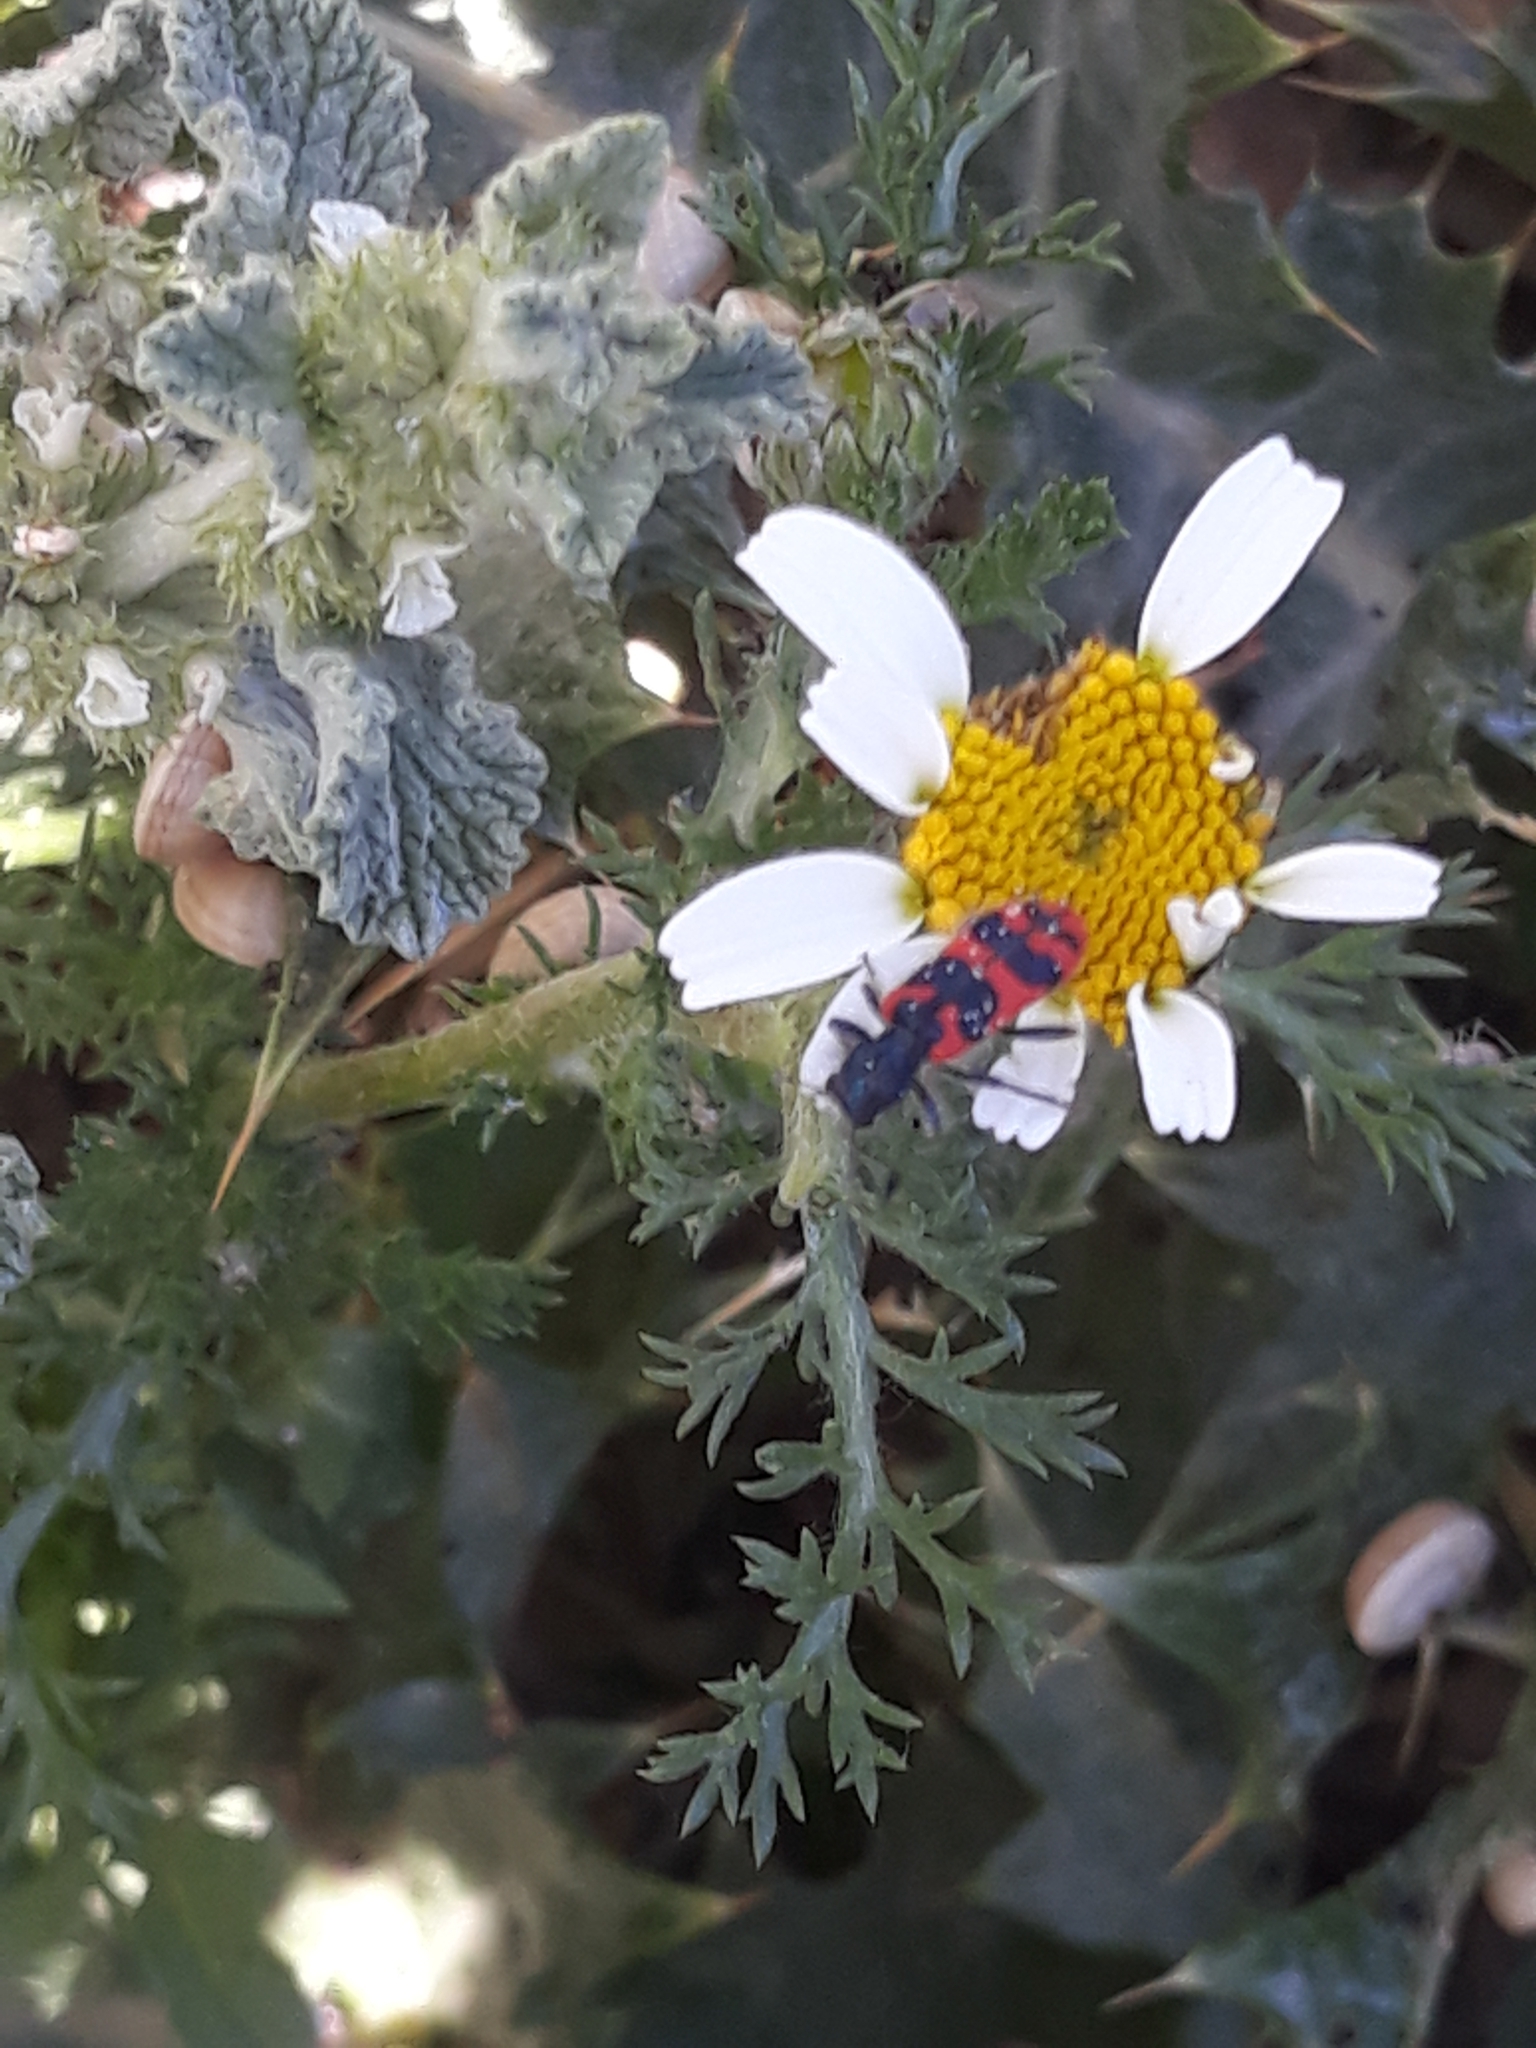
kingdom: Animalia
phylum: Arthropoda
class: Insecta
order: Coleoptera
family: Cleridae
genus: Trichodes
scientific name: Trichodes leucopsideus
